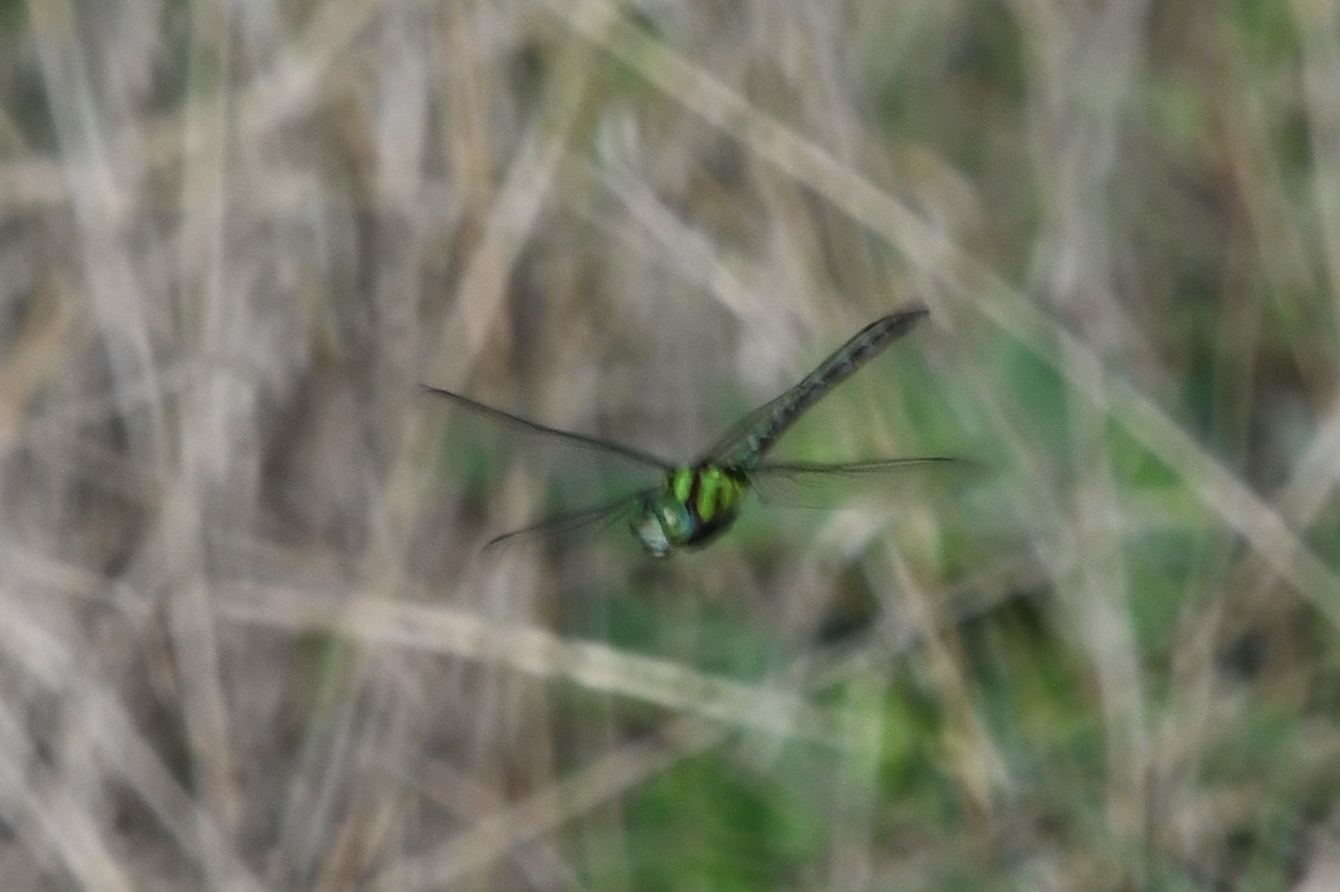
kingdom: Animalia
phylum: Arthropoda
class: Insecta
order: Odonata
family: Aeshnidae
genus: Remartinia
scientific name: Remartinia luteipennis
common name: Malachite darner
